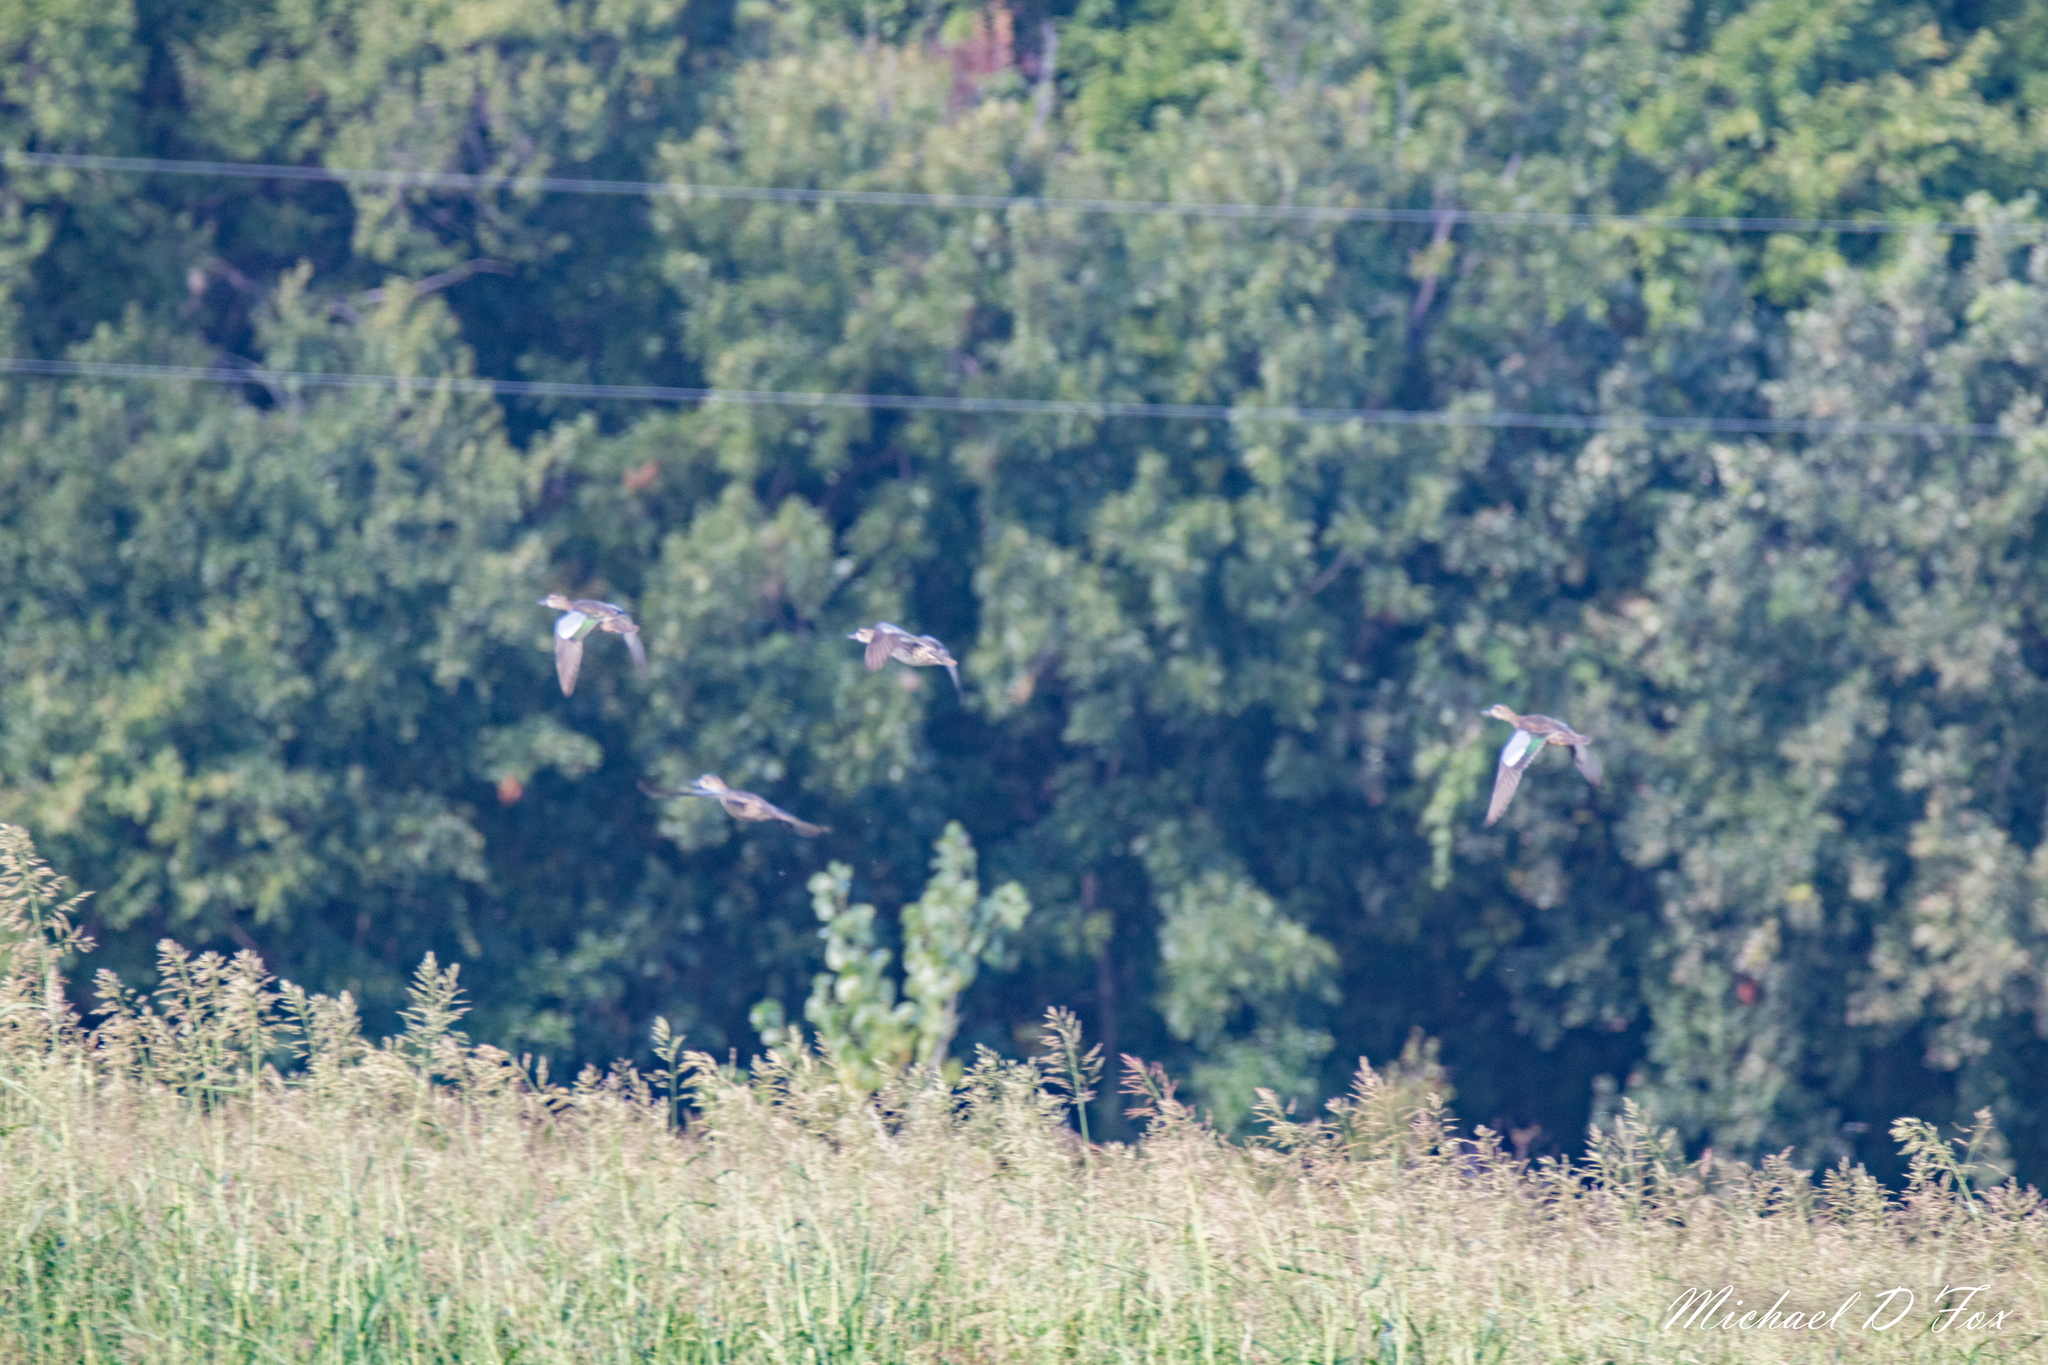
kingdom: Animalia
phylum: Chordata
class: Aves
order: Anseriformes
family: Anatidae
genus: Spatula
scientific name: Spatula discors
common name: Blue-winged teal
